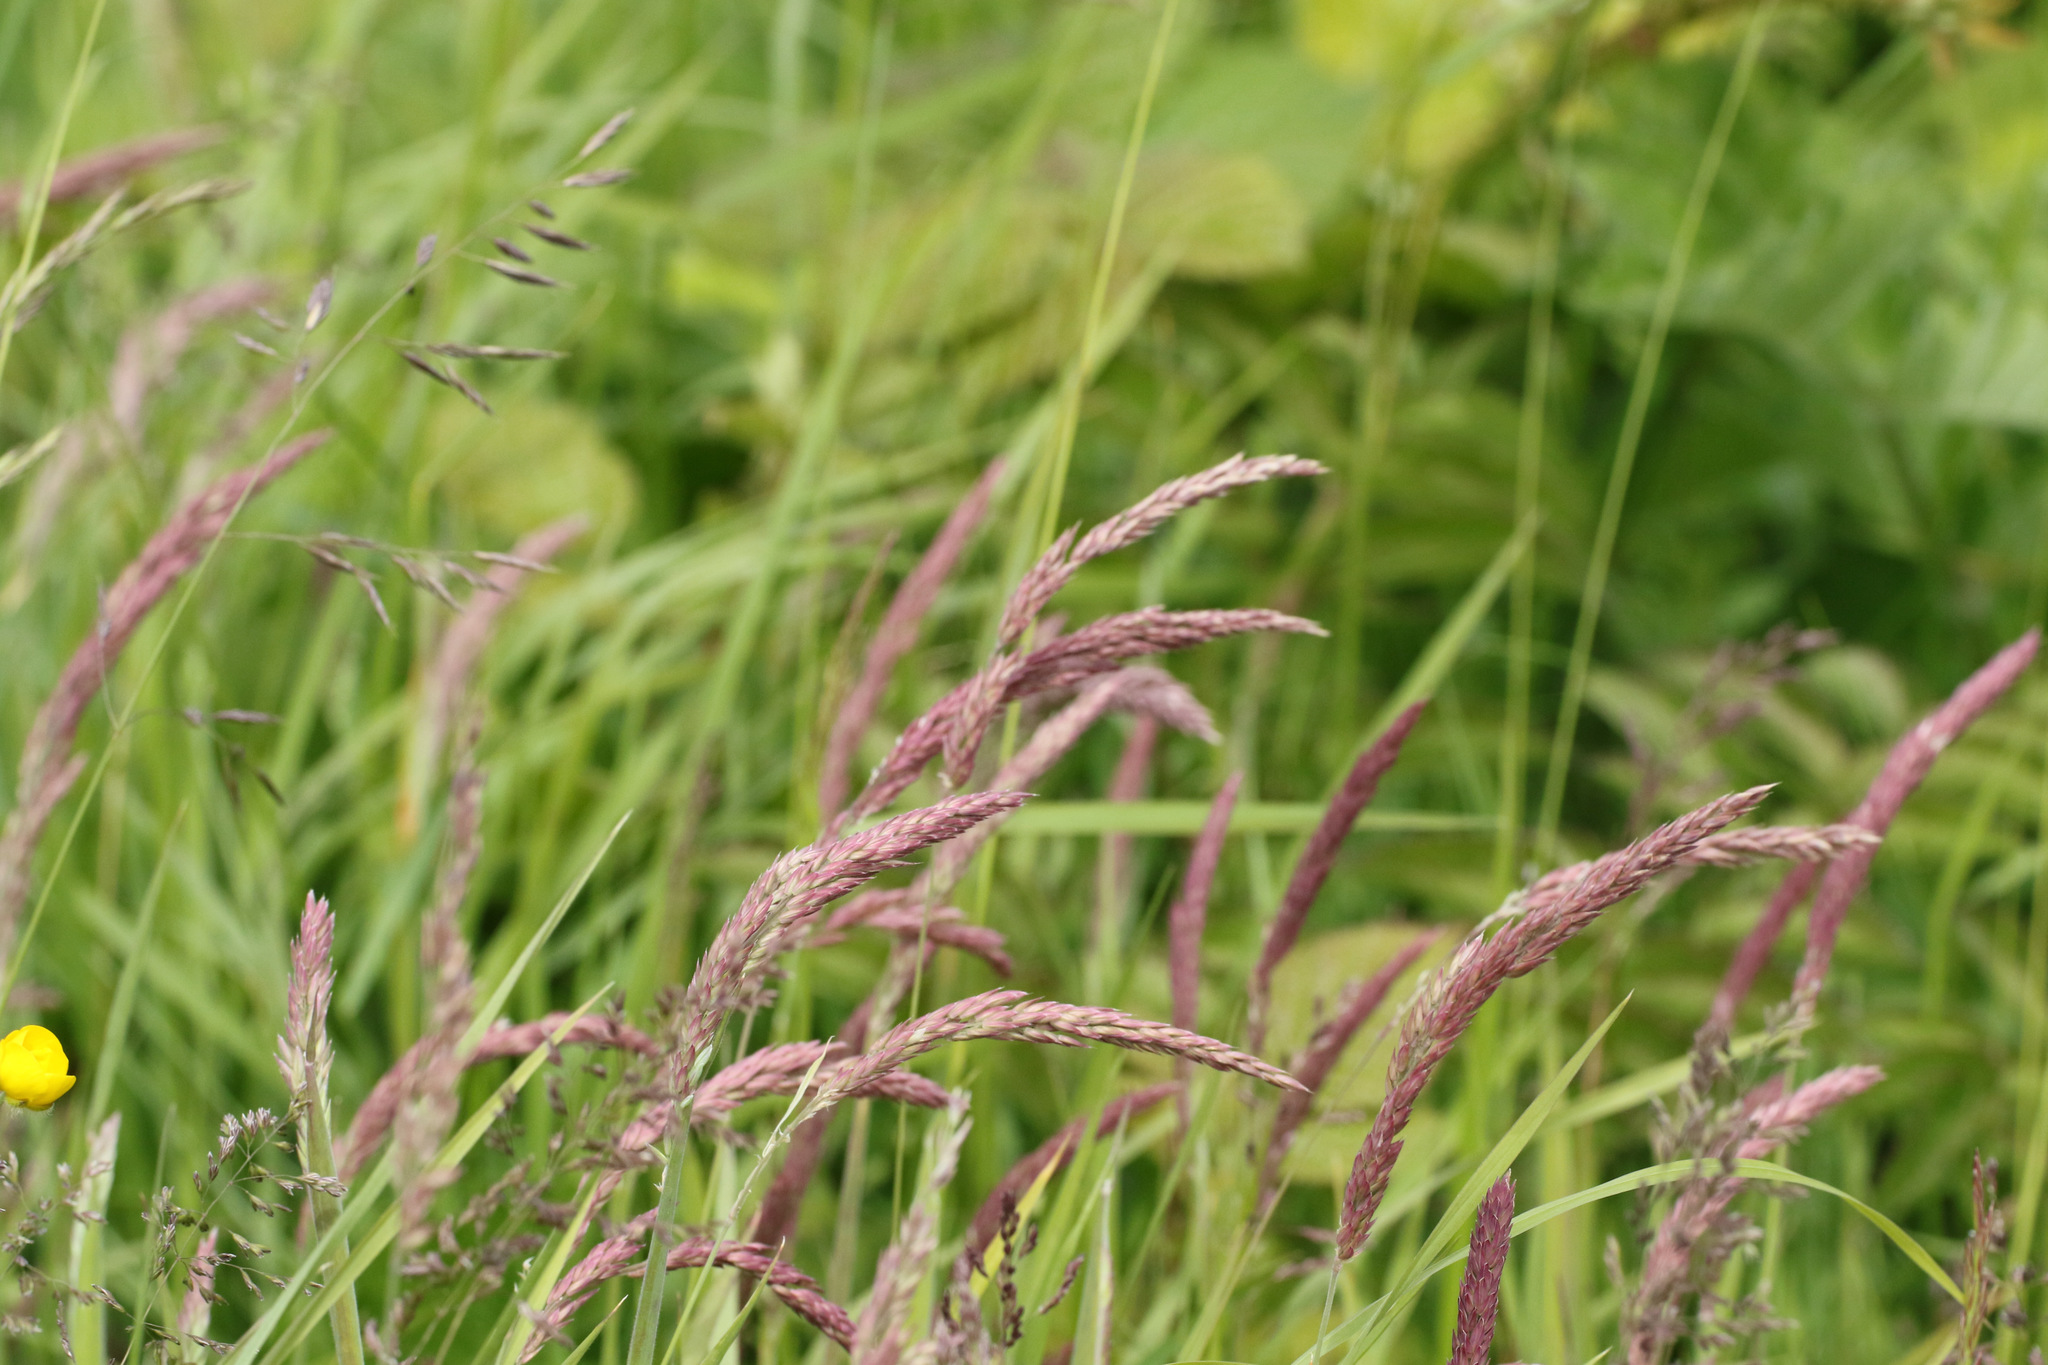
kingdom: Plantae
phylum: Tracheophyta
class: Liliopsida
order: Poales
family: Poaceae
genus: Holcus
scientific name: Holcus lanatus
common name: Yorkshire-fog
